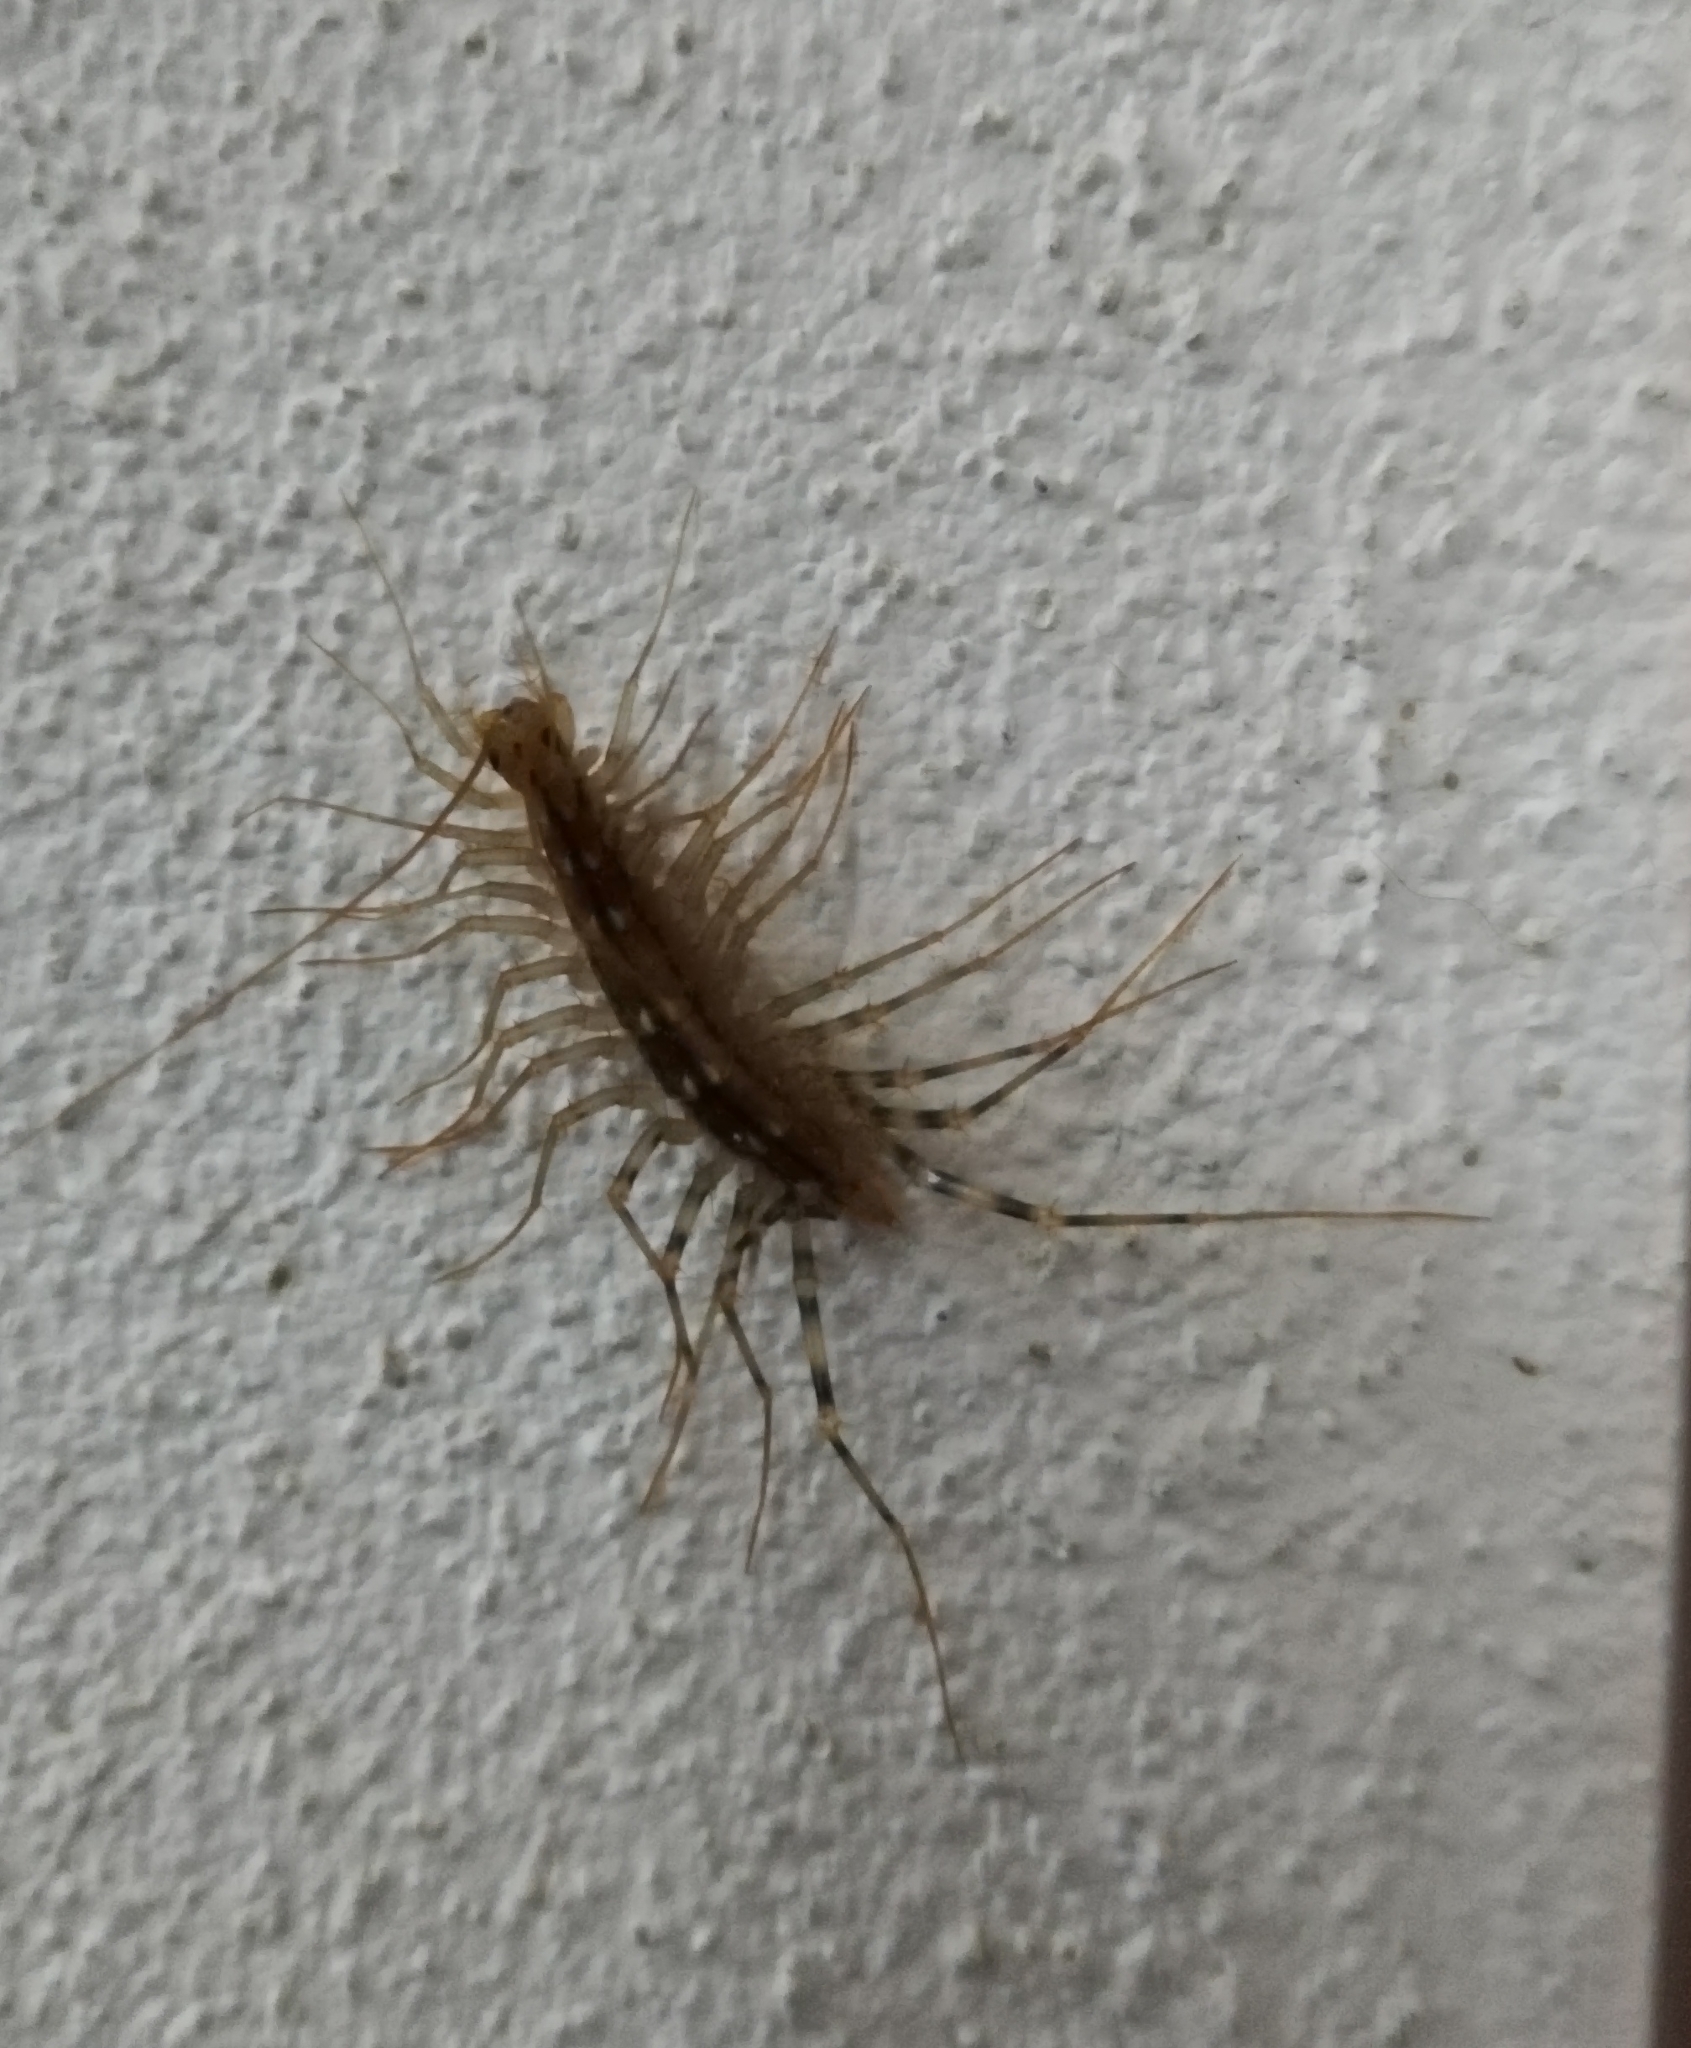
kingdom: Animalia
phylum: Arthropoda
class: Chilopoda
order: Scutigeromorpha
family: Scutigeridae
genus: Scutigera
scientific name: Scutigera coleoptrata
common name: House centipede
